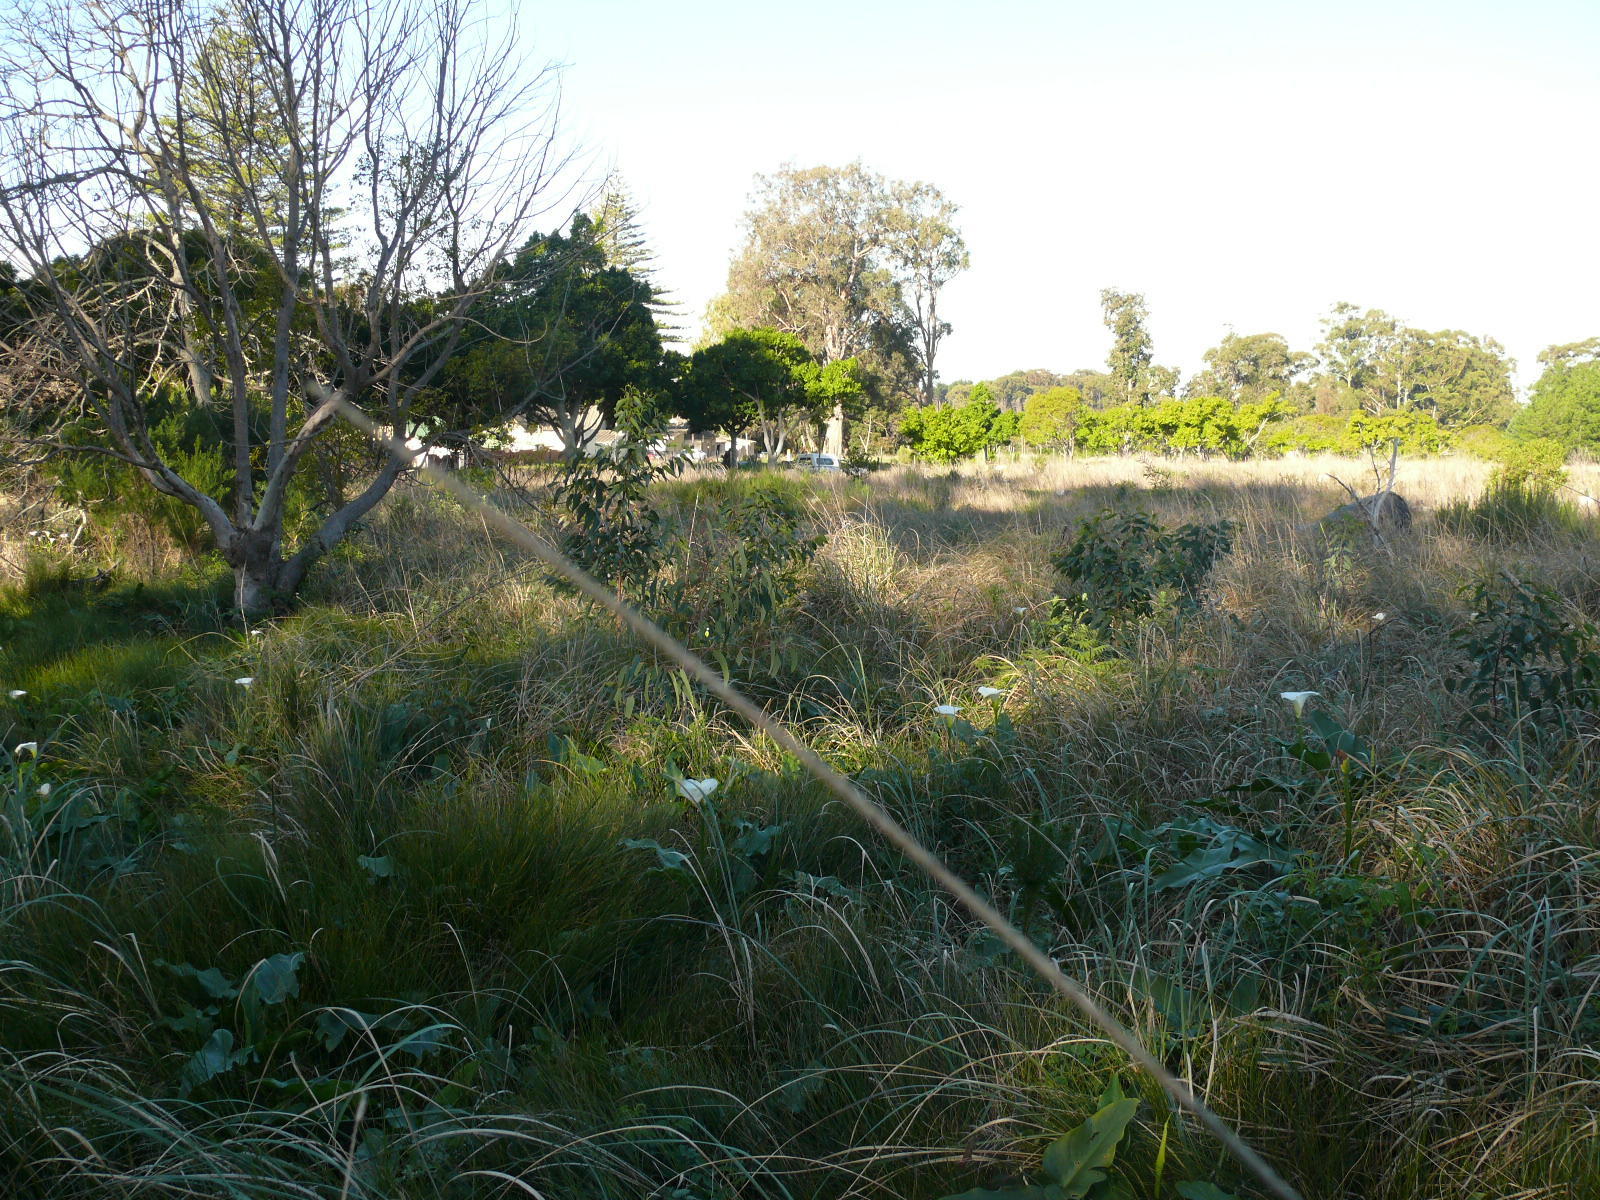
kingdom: Plantae
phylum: Tracheophyta
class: Liliopsida
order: Alismatales
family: Araceae
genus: Zantedeschia
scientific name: Zantedeschia aethiopica
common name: Altar-lily
